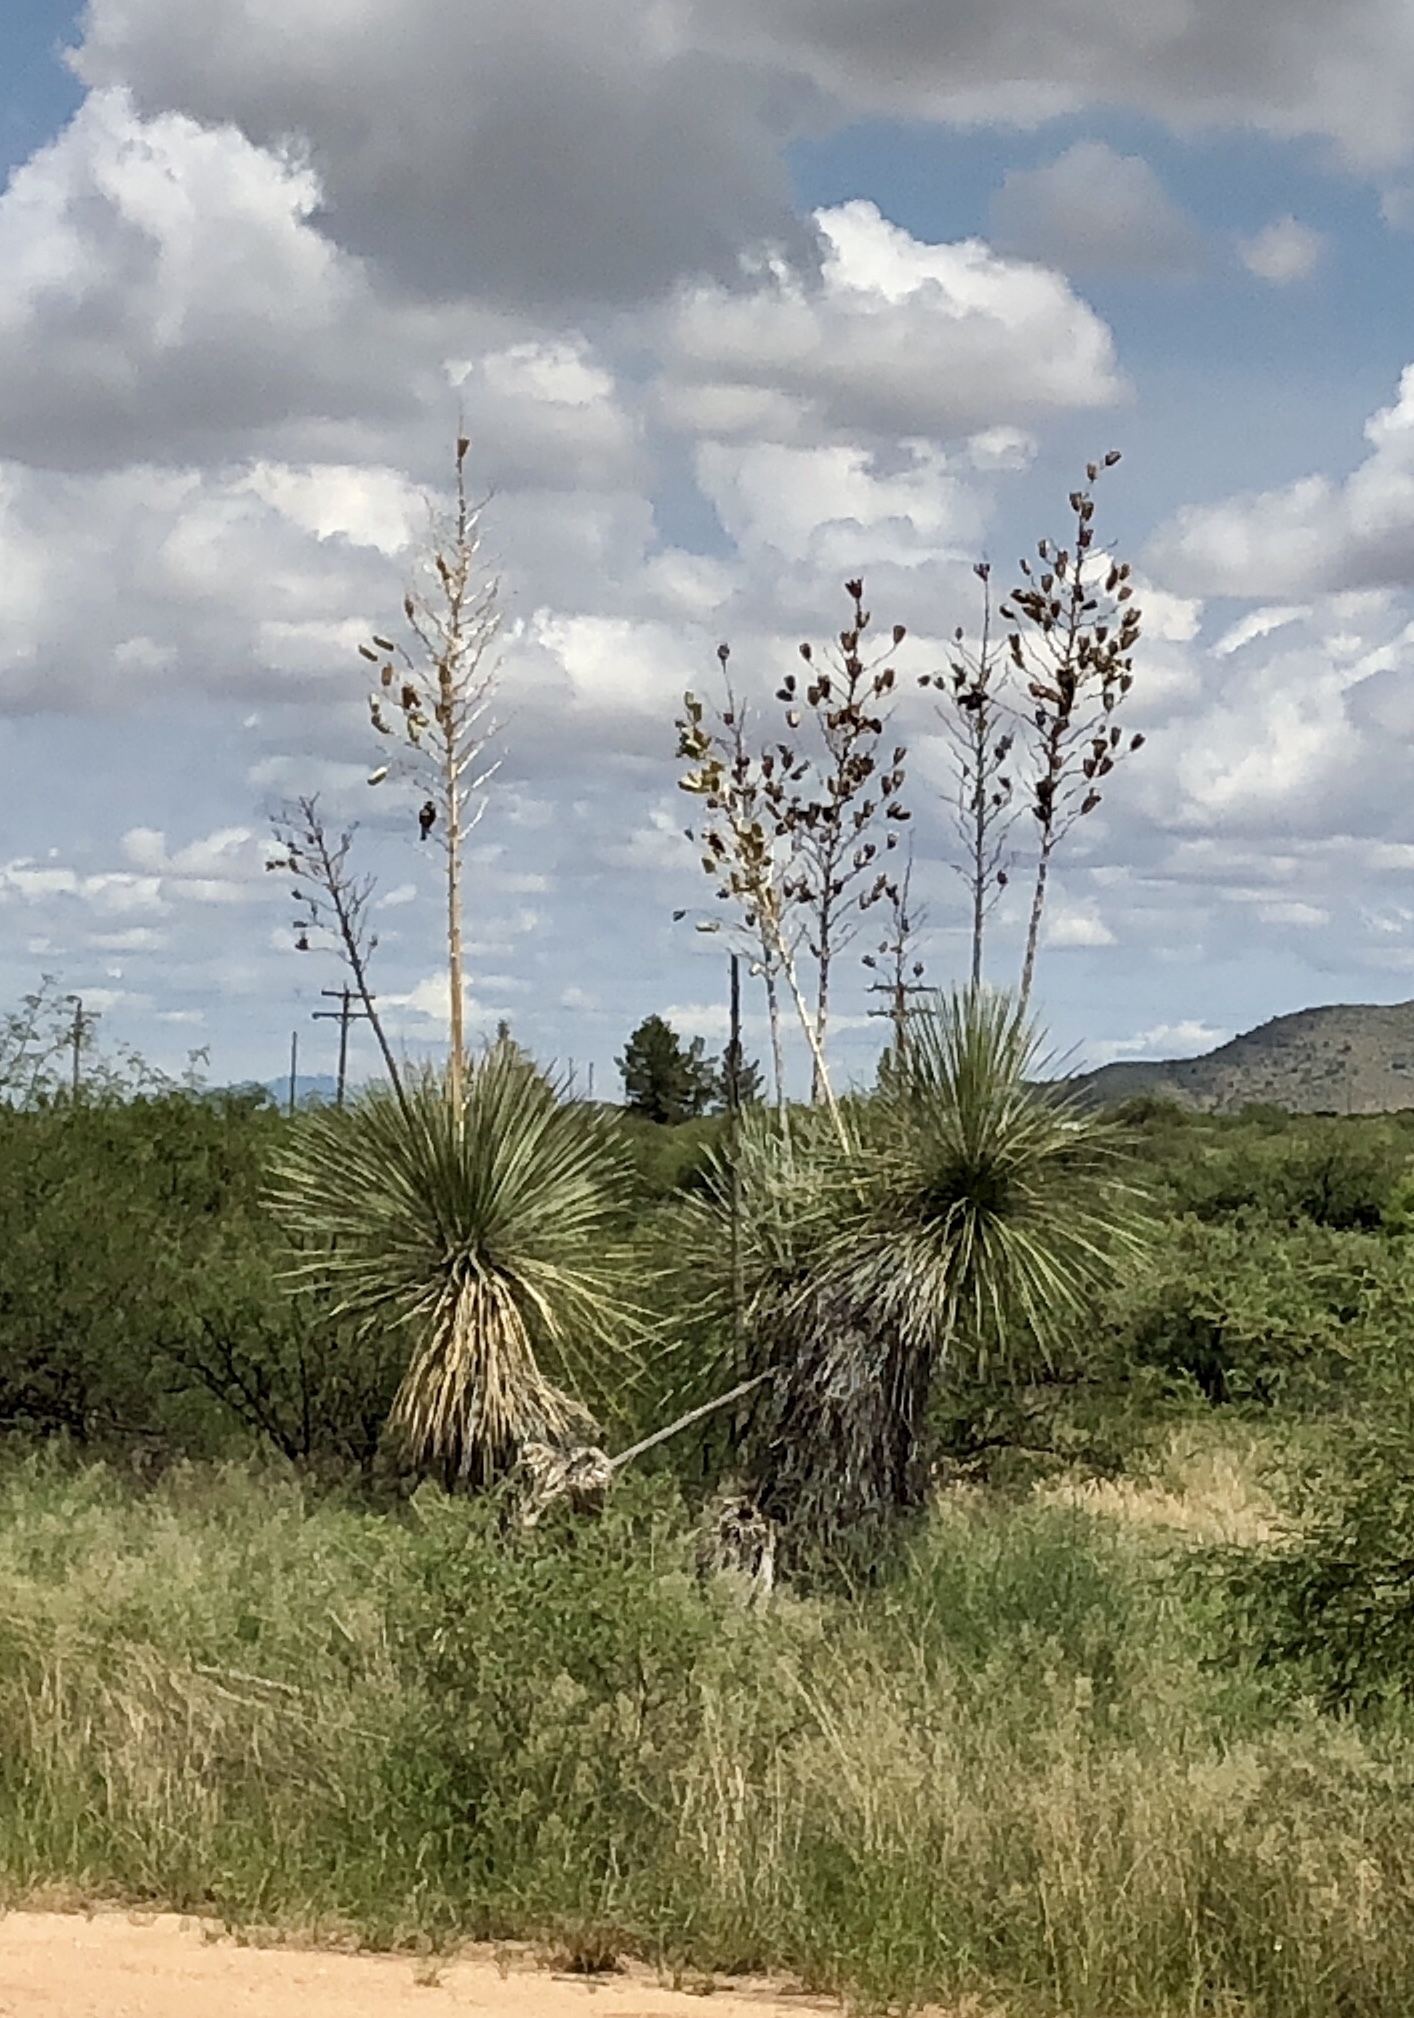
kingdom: Plantae
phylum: Tracheophyta
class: Liliopsida
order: Asparagales
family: Asparagaceae
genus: Yucca
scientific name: Yucca elata
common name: Palmella
